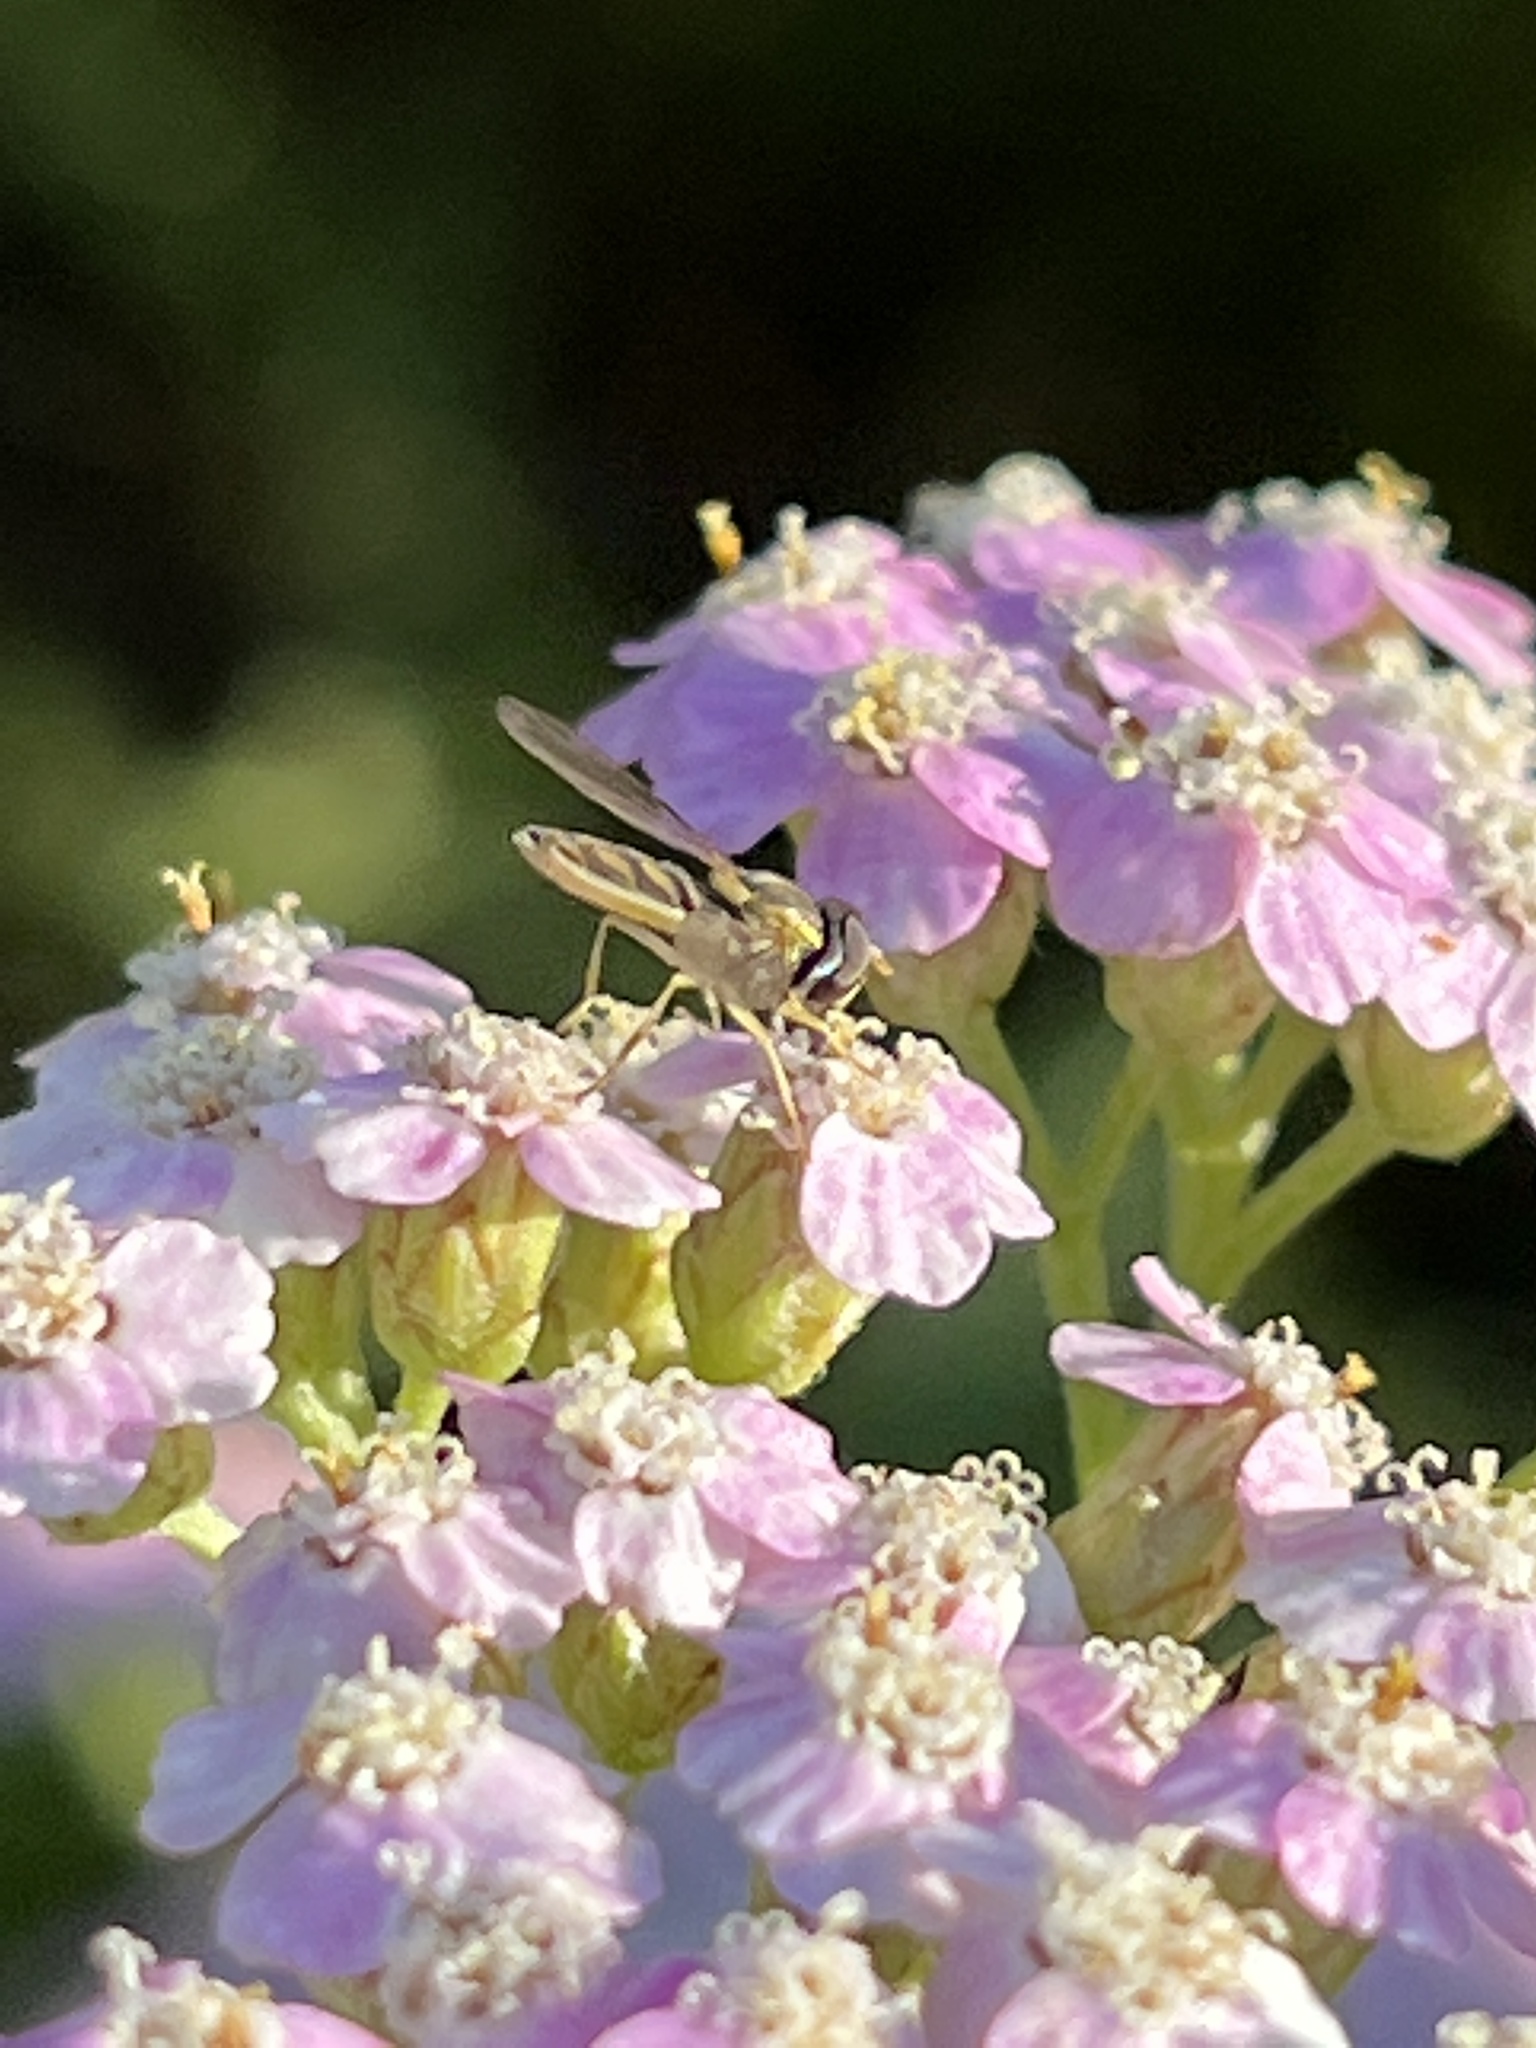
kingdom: Animalia
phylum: Arthropoda
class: Insecta
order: Diptera
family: Syrphidae
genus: Toxomerus
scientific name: Toxomerus marginatus
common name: Syrphid fly
